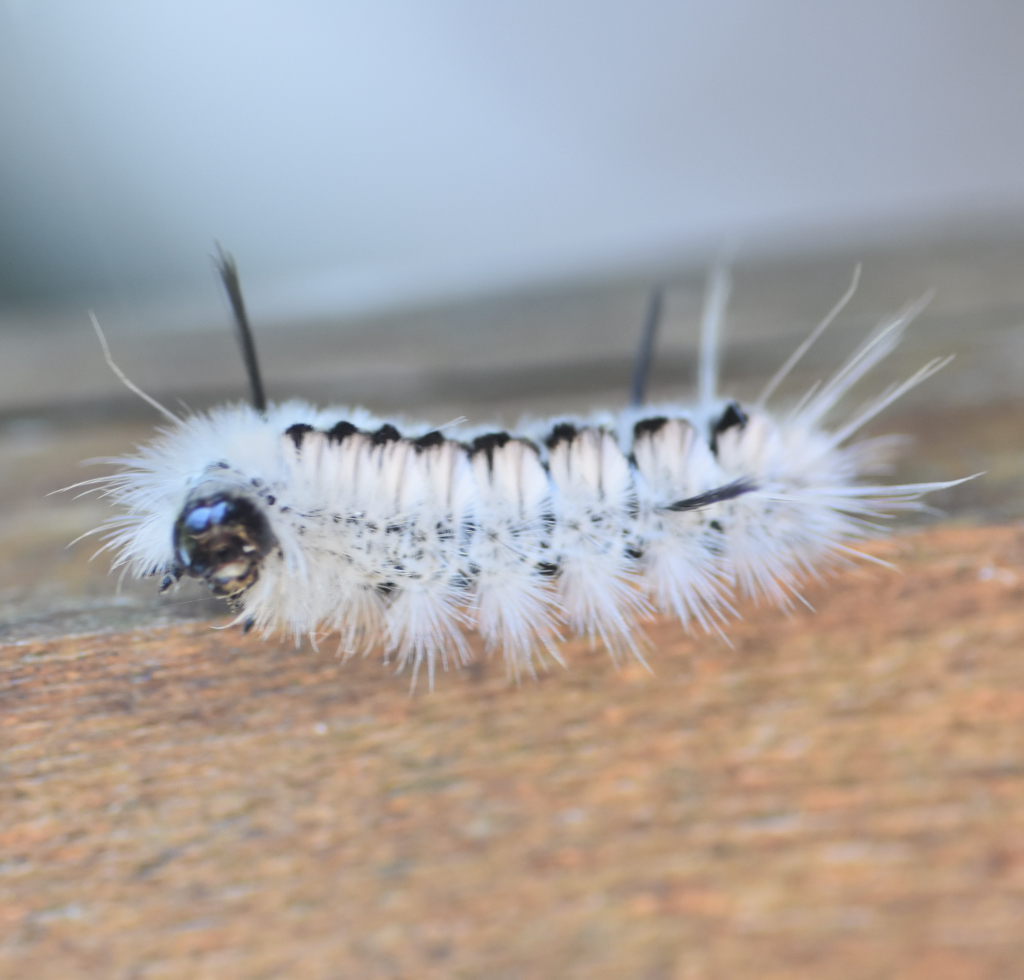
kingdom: Animalia
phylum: Arthropoda
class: Insecta
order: Lepidoptera
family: Erebidae
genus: Lophocampa
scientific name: Lophocampa caryae
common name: Hickory tussock moth
